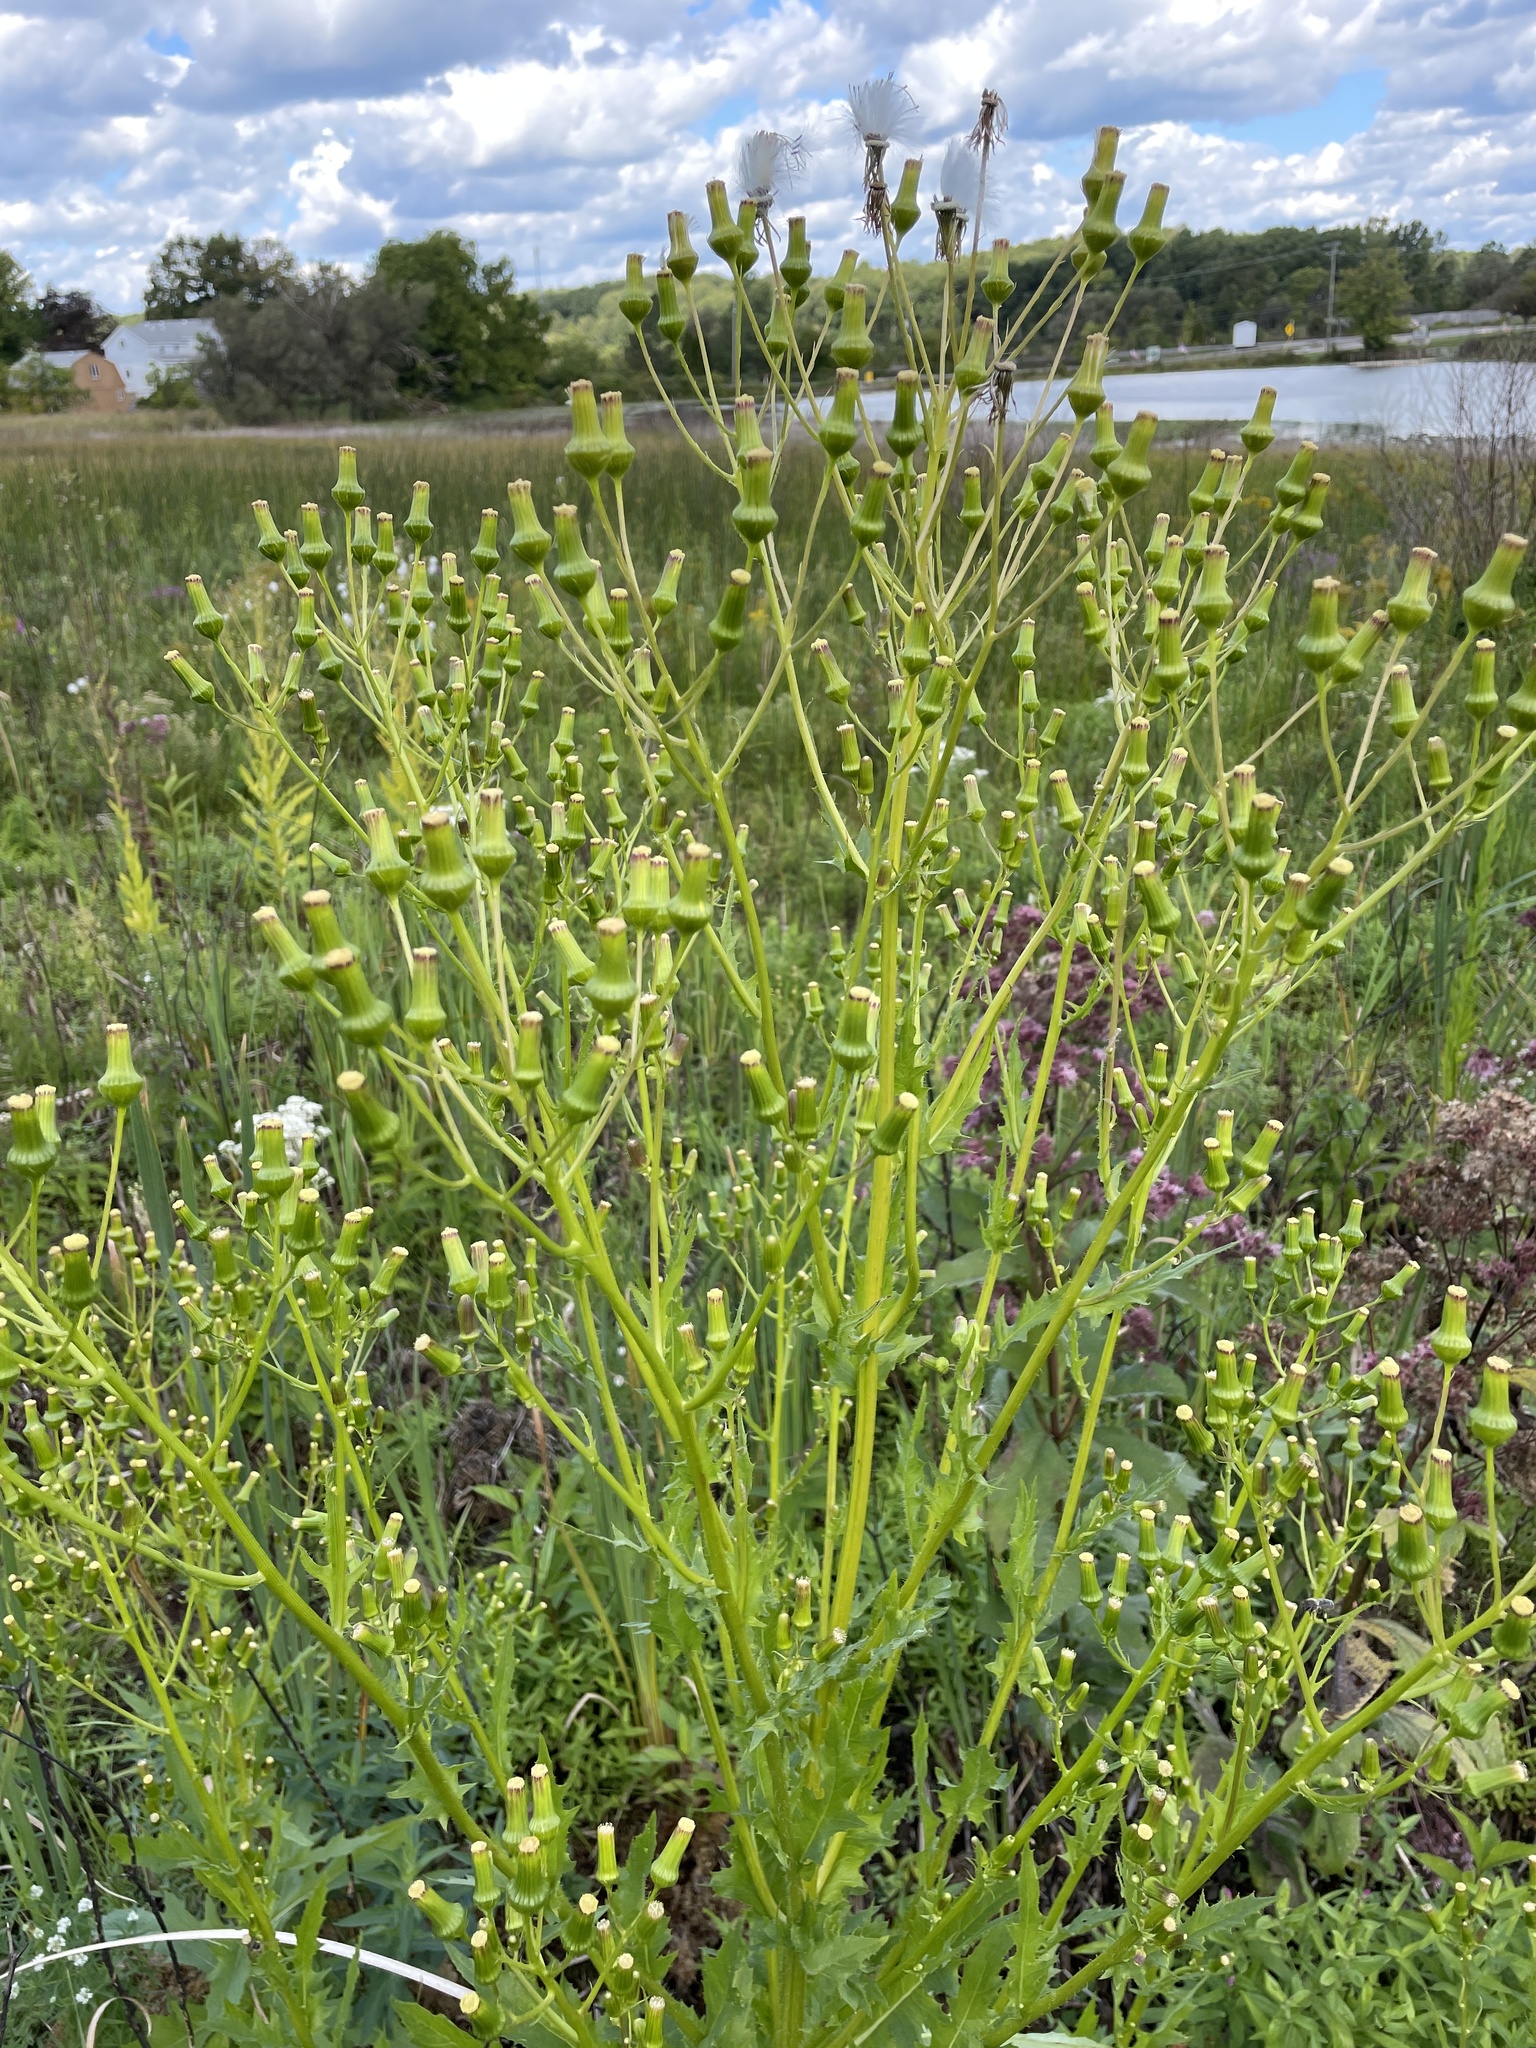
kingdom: Plantae
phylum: Tracheophyta
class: Magnoliopsida
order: Asterales
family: Asteraceae
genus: Erechtites
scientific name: Erechtites hieraciifolius
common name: American burnweed
